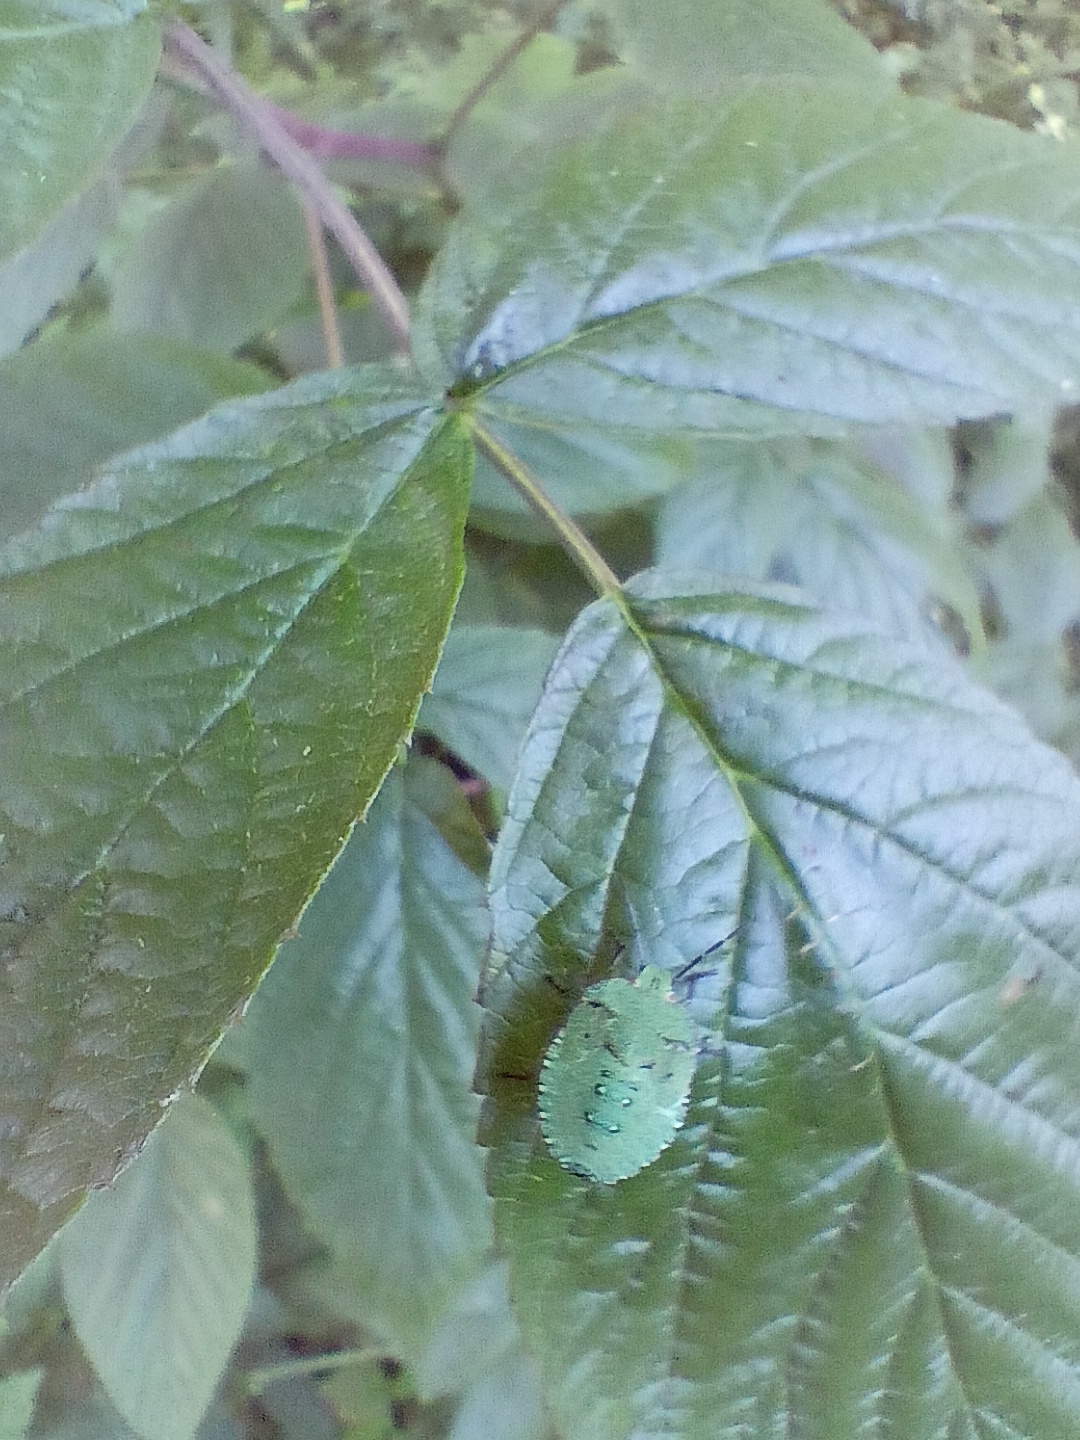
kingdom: Animalia
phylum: Arthropoda
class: Insecta
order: Hemiptera
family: Pentatomidae
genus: Palomena
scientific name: Palomena prasina
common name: Green shieldbug
